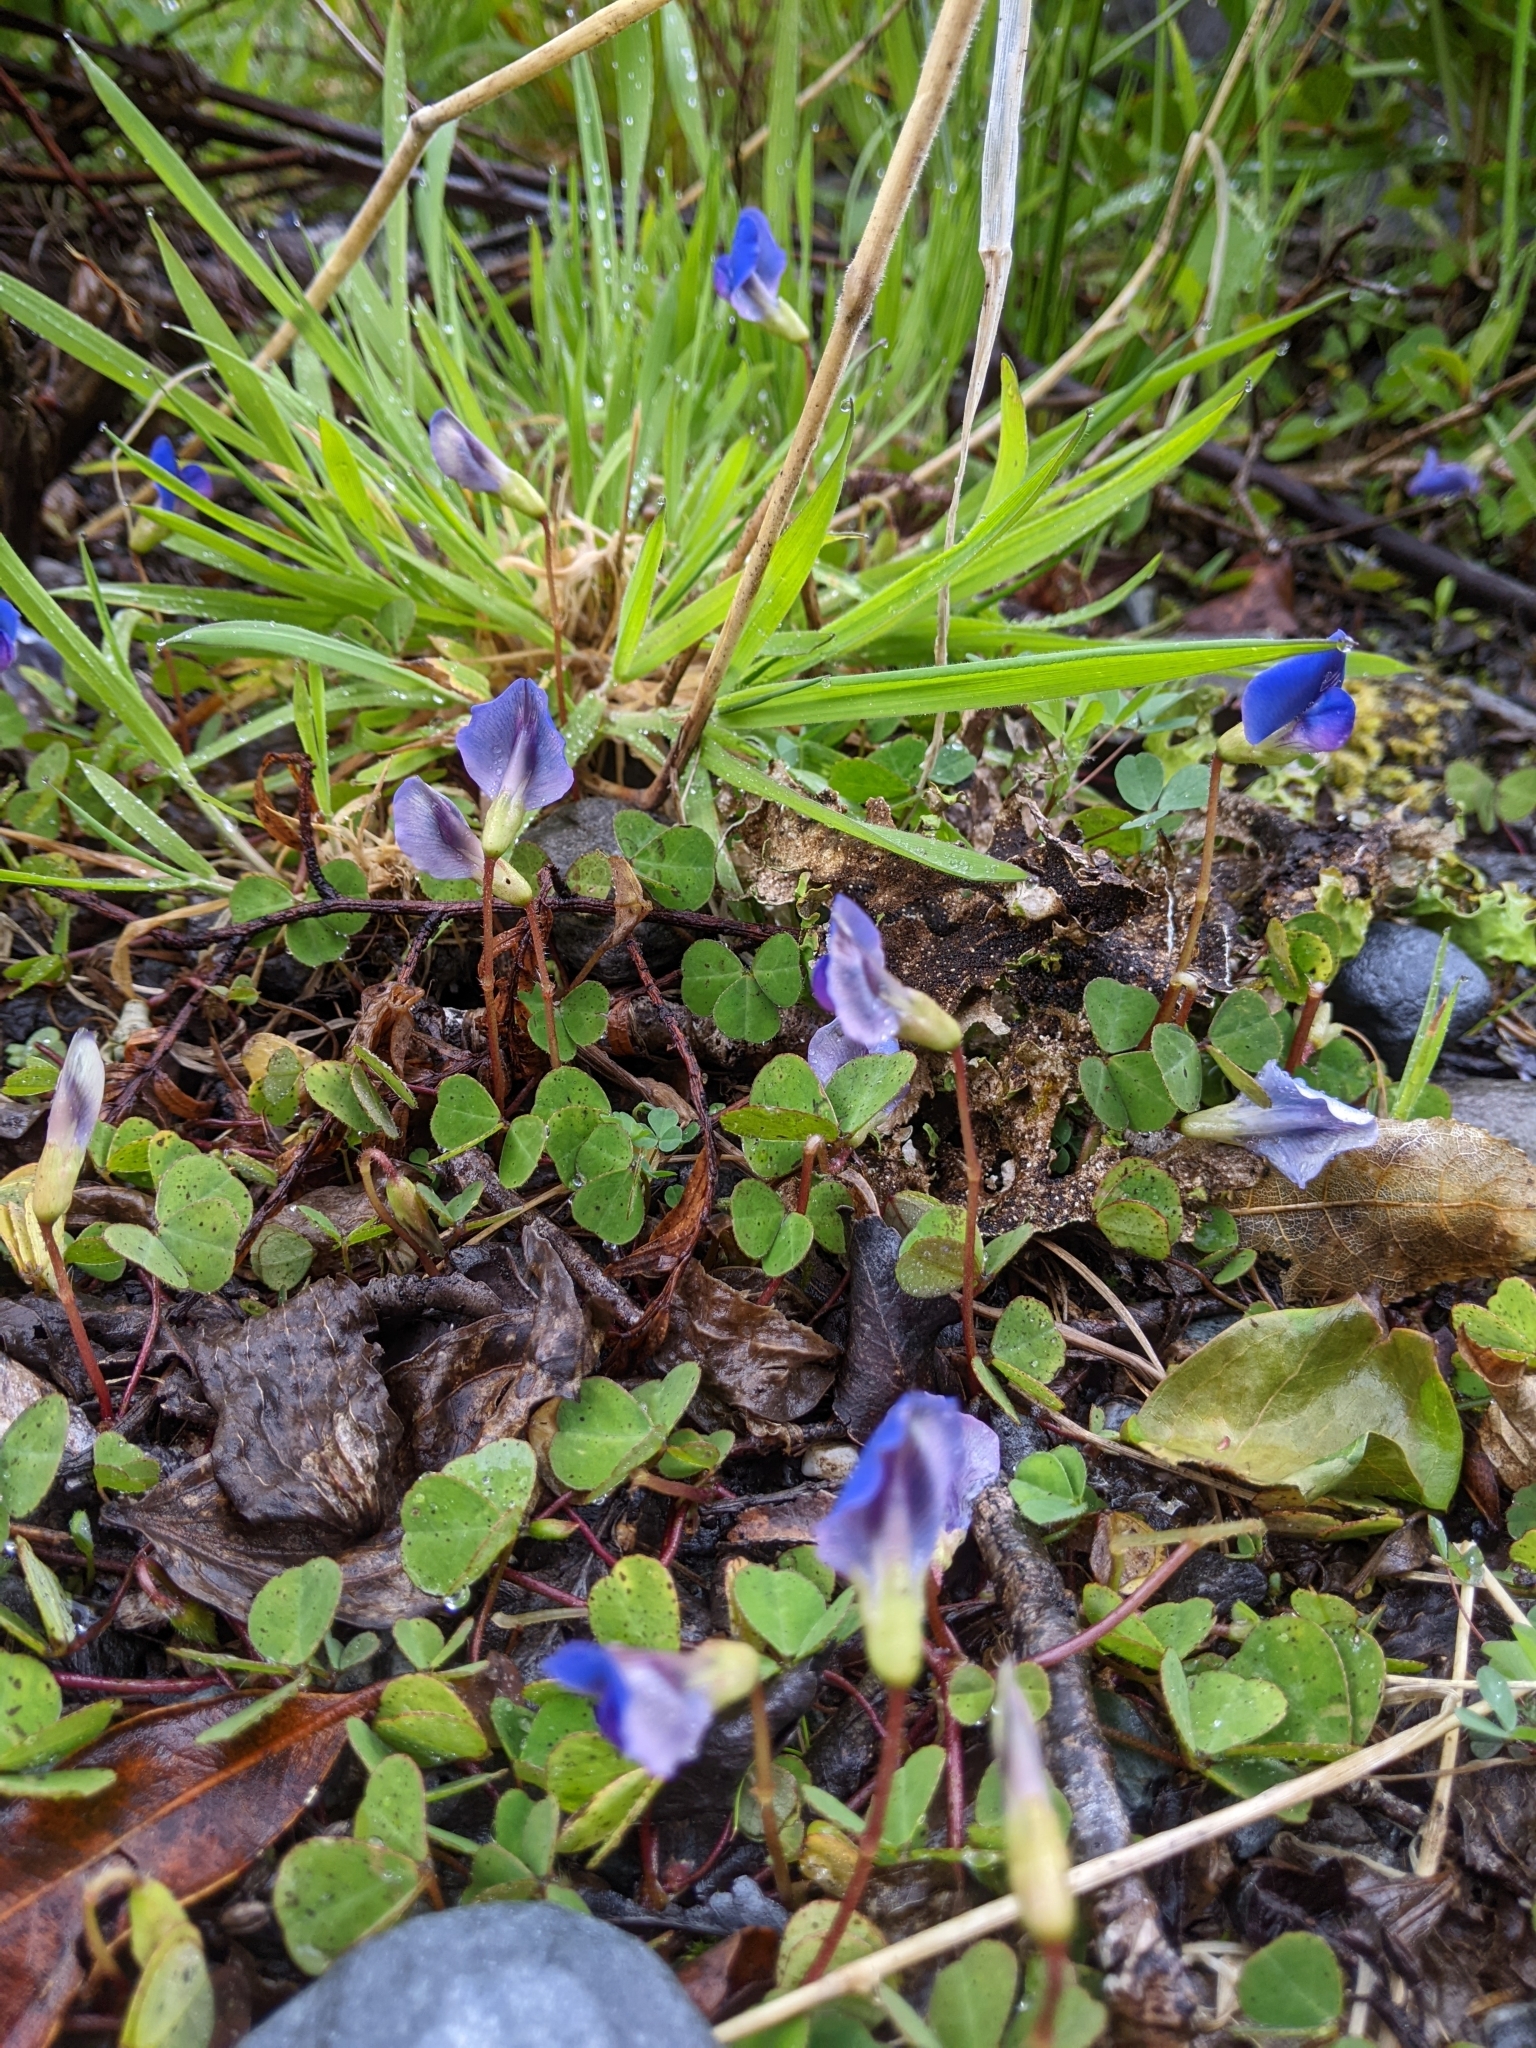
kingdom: Plantae
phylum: Tracheophyta
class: Magnoliopsida
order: Fabales
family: Fabaceae
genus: Parochetus
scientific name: Parochetus communis
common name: Blue oxalis
